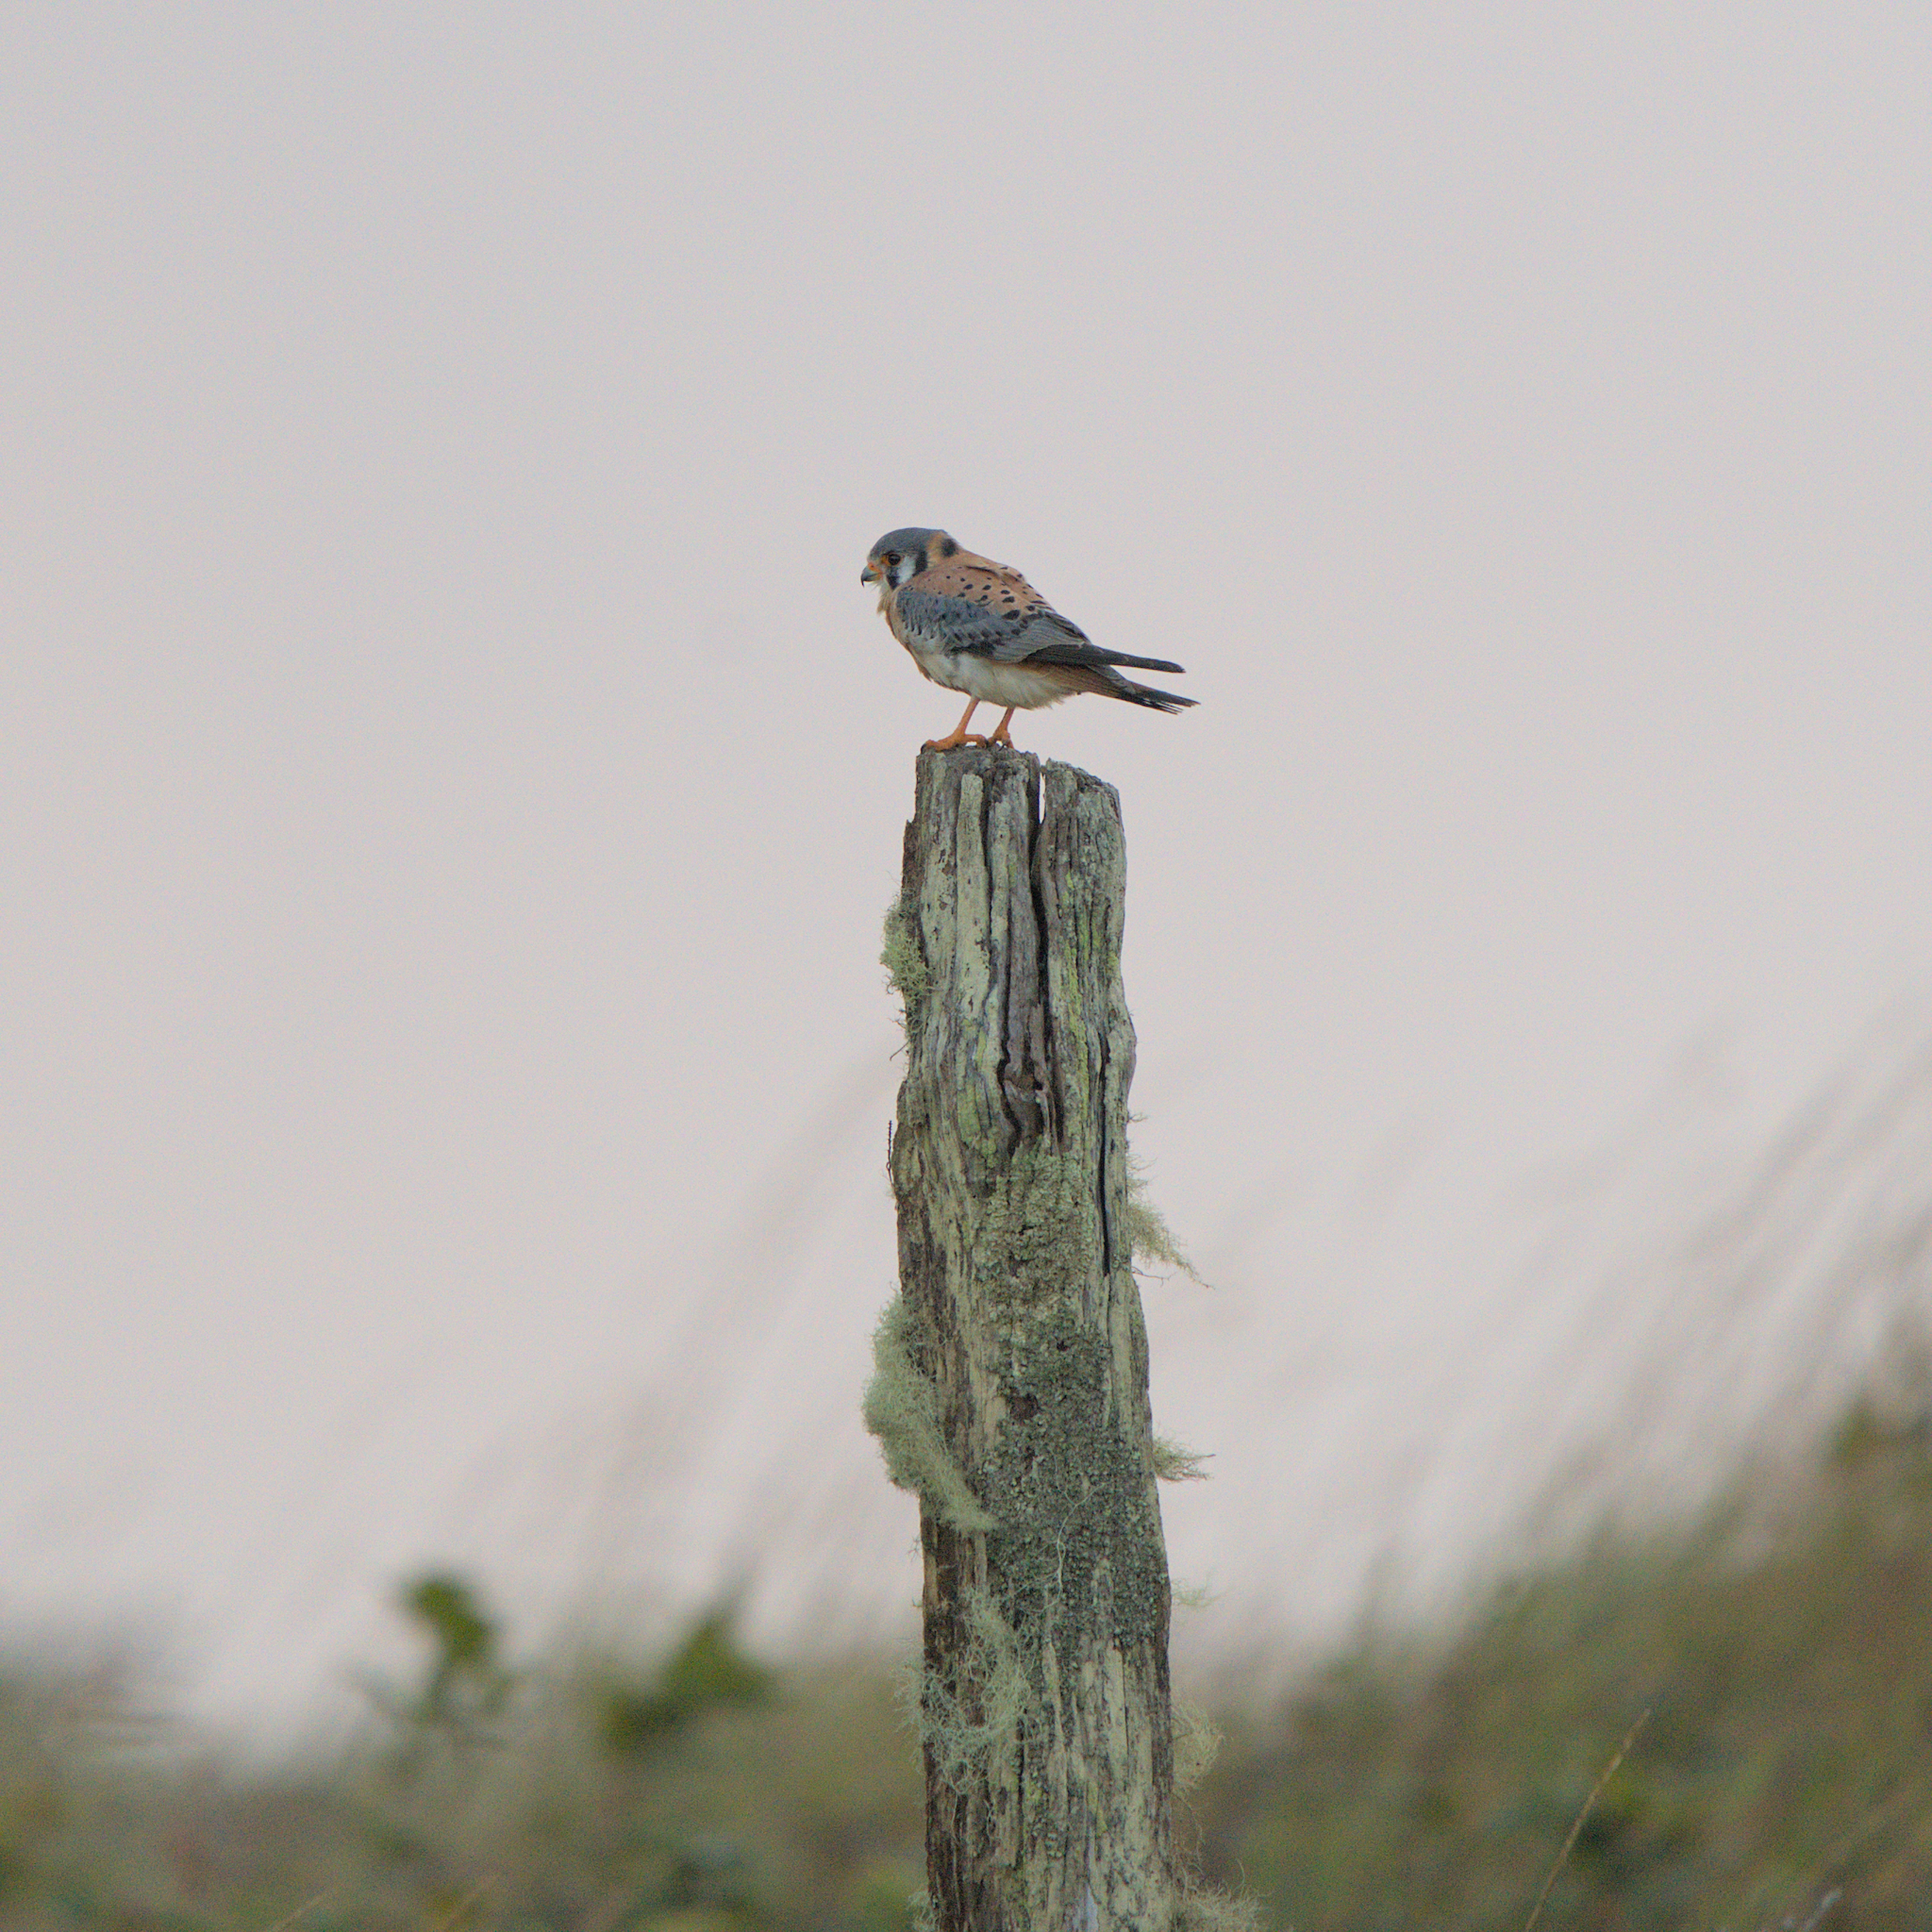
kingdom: Animalia
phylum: Chordata
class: Aves
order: Falconiformes
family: Falconidae
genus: Falco
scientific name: Falco sparverius
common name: American kestrel
